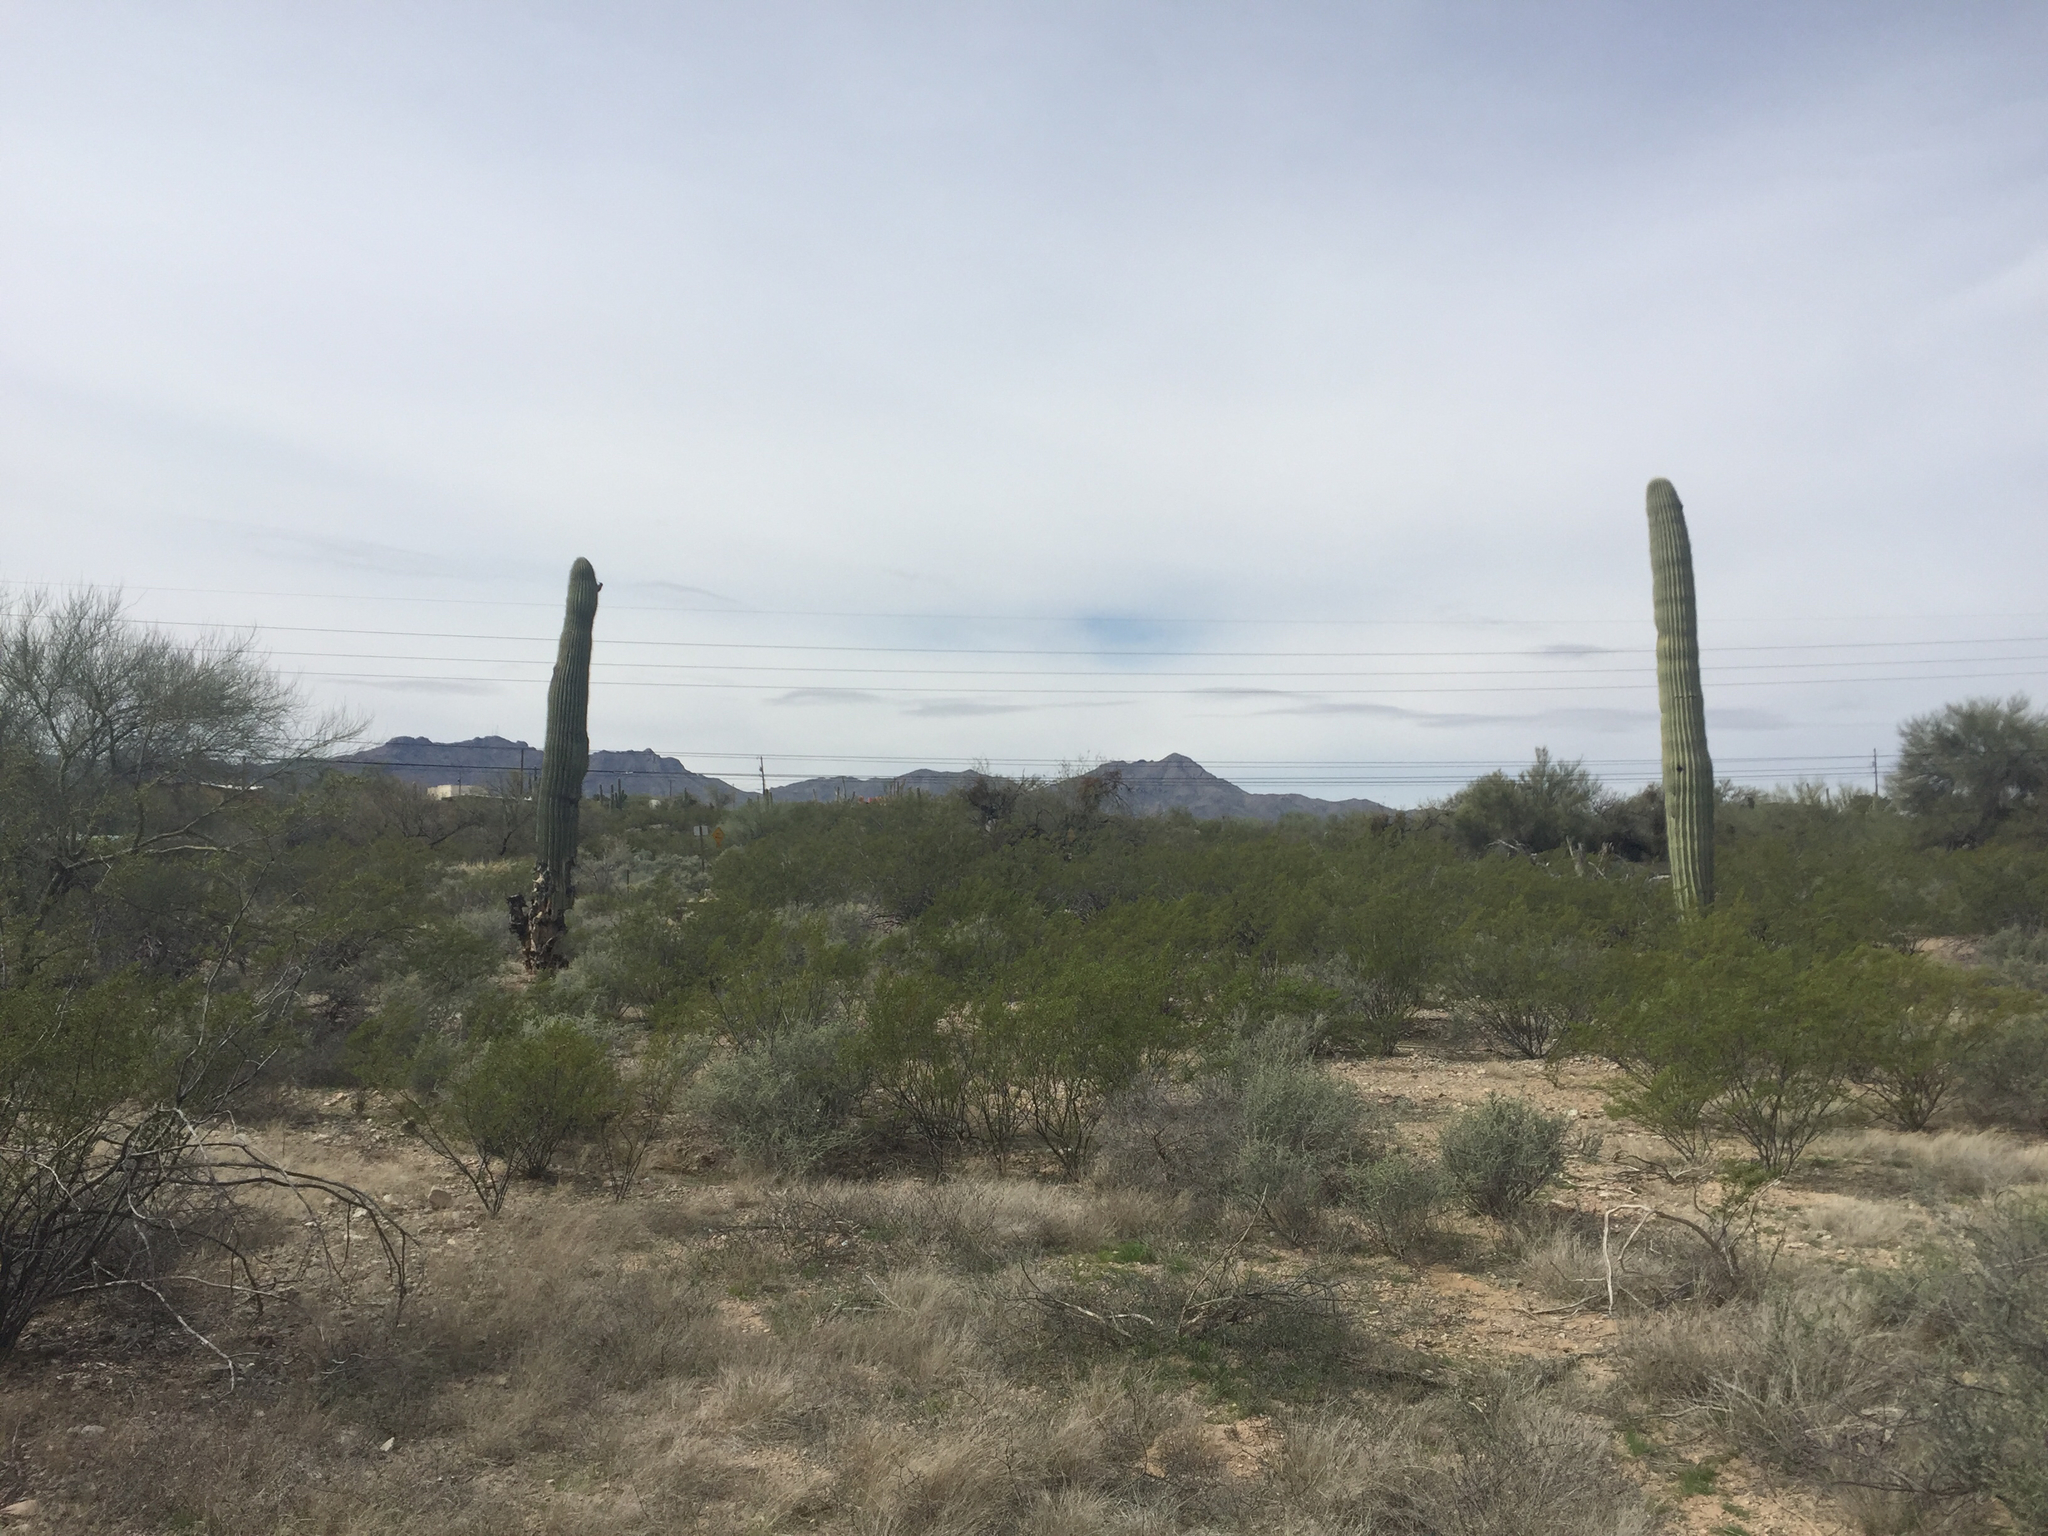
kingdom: Plantae
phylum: Tracheophyta
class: Magnoliopsida
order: Caryophyllales
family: Cactaceae
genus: Carnegiea
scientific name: Carnegiea gigantea
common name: Saguaro
